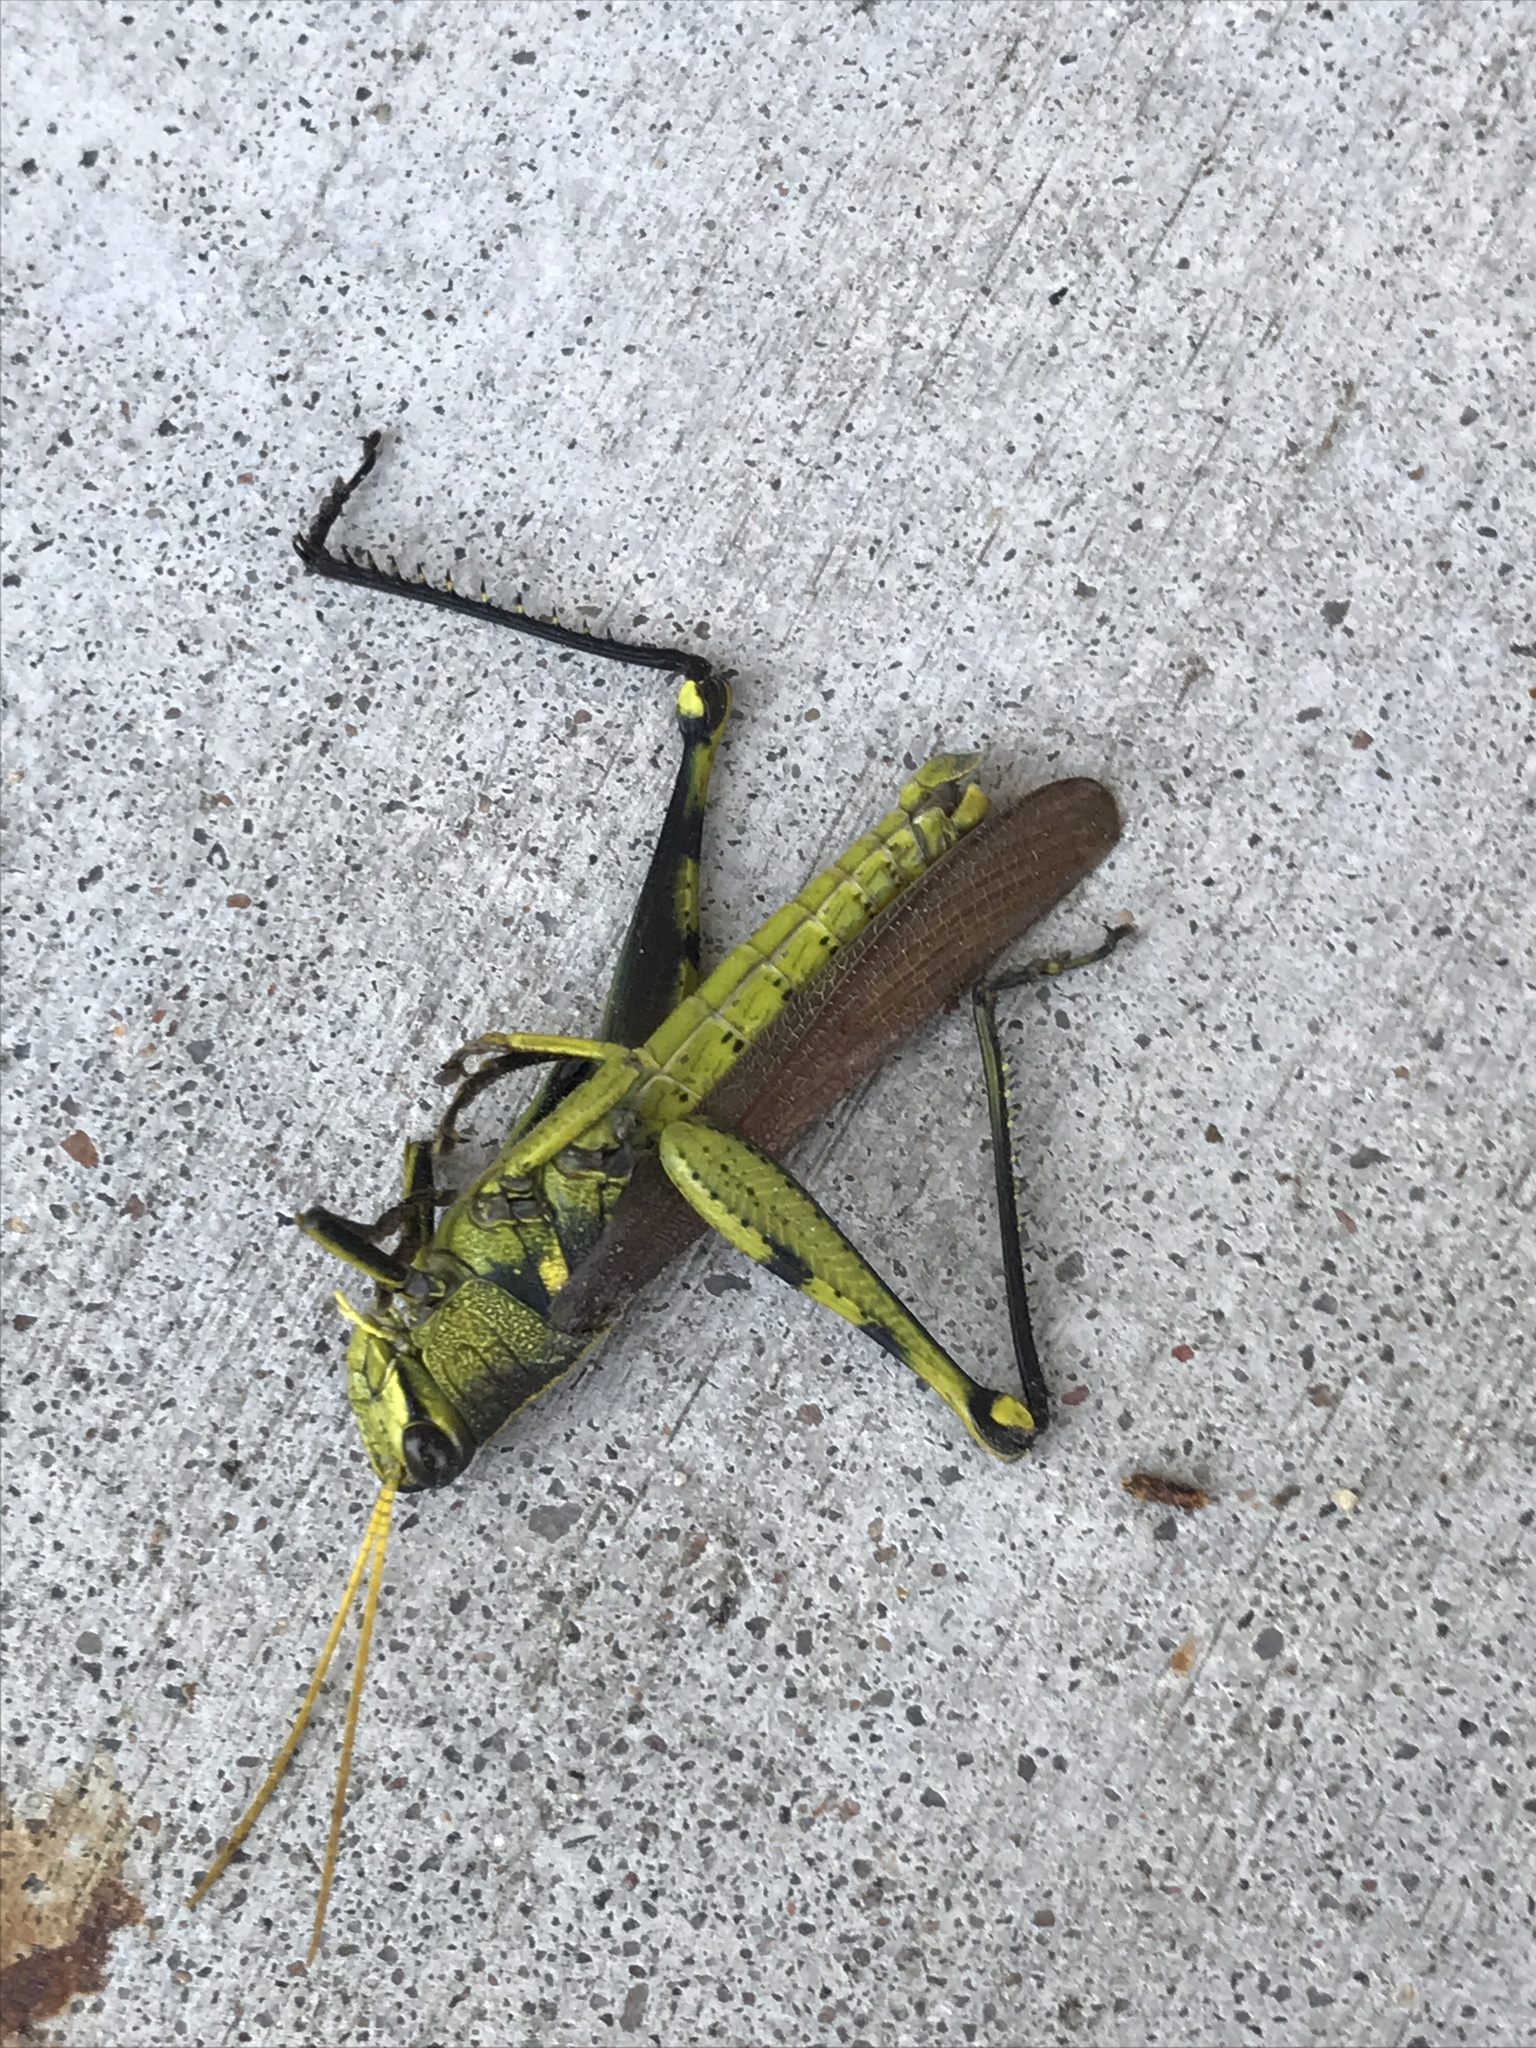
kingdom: Animalia
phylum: Arthropoda
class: Insecta
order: Orthoptera
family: Acrididae
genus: Schistocerca
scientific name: Schistocerca obscura
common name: Obscure bird grasshopper
